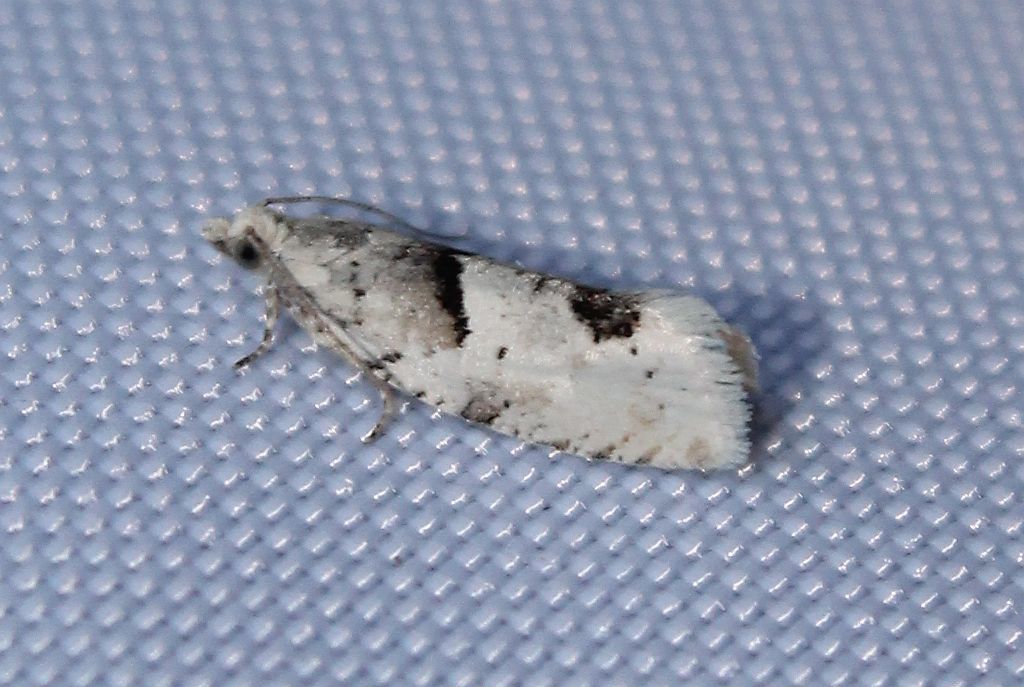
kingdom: Animalia
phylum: Arthropoda
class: Insecta
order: Lepidoptera
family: Tortricidae
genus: Epinotia
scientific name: Epinotia bilunana
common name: Crescent bell
